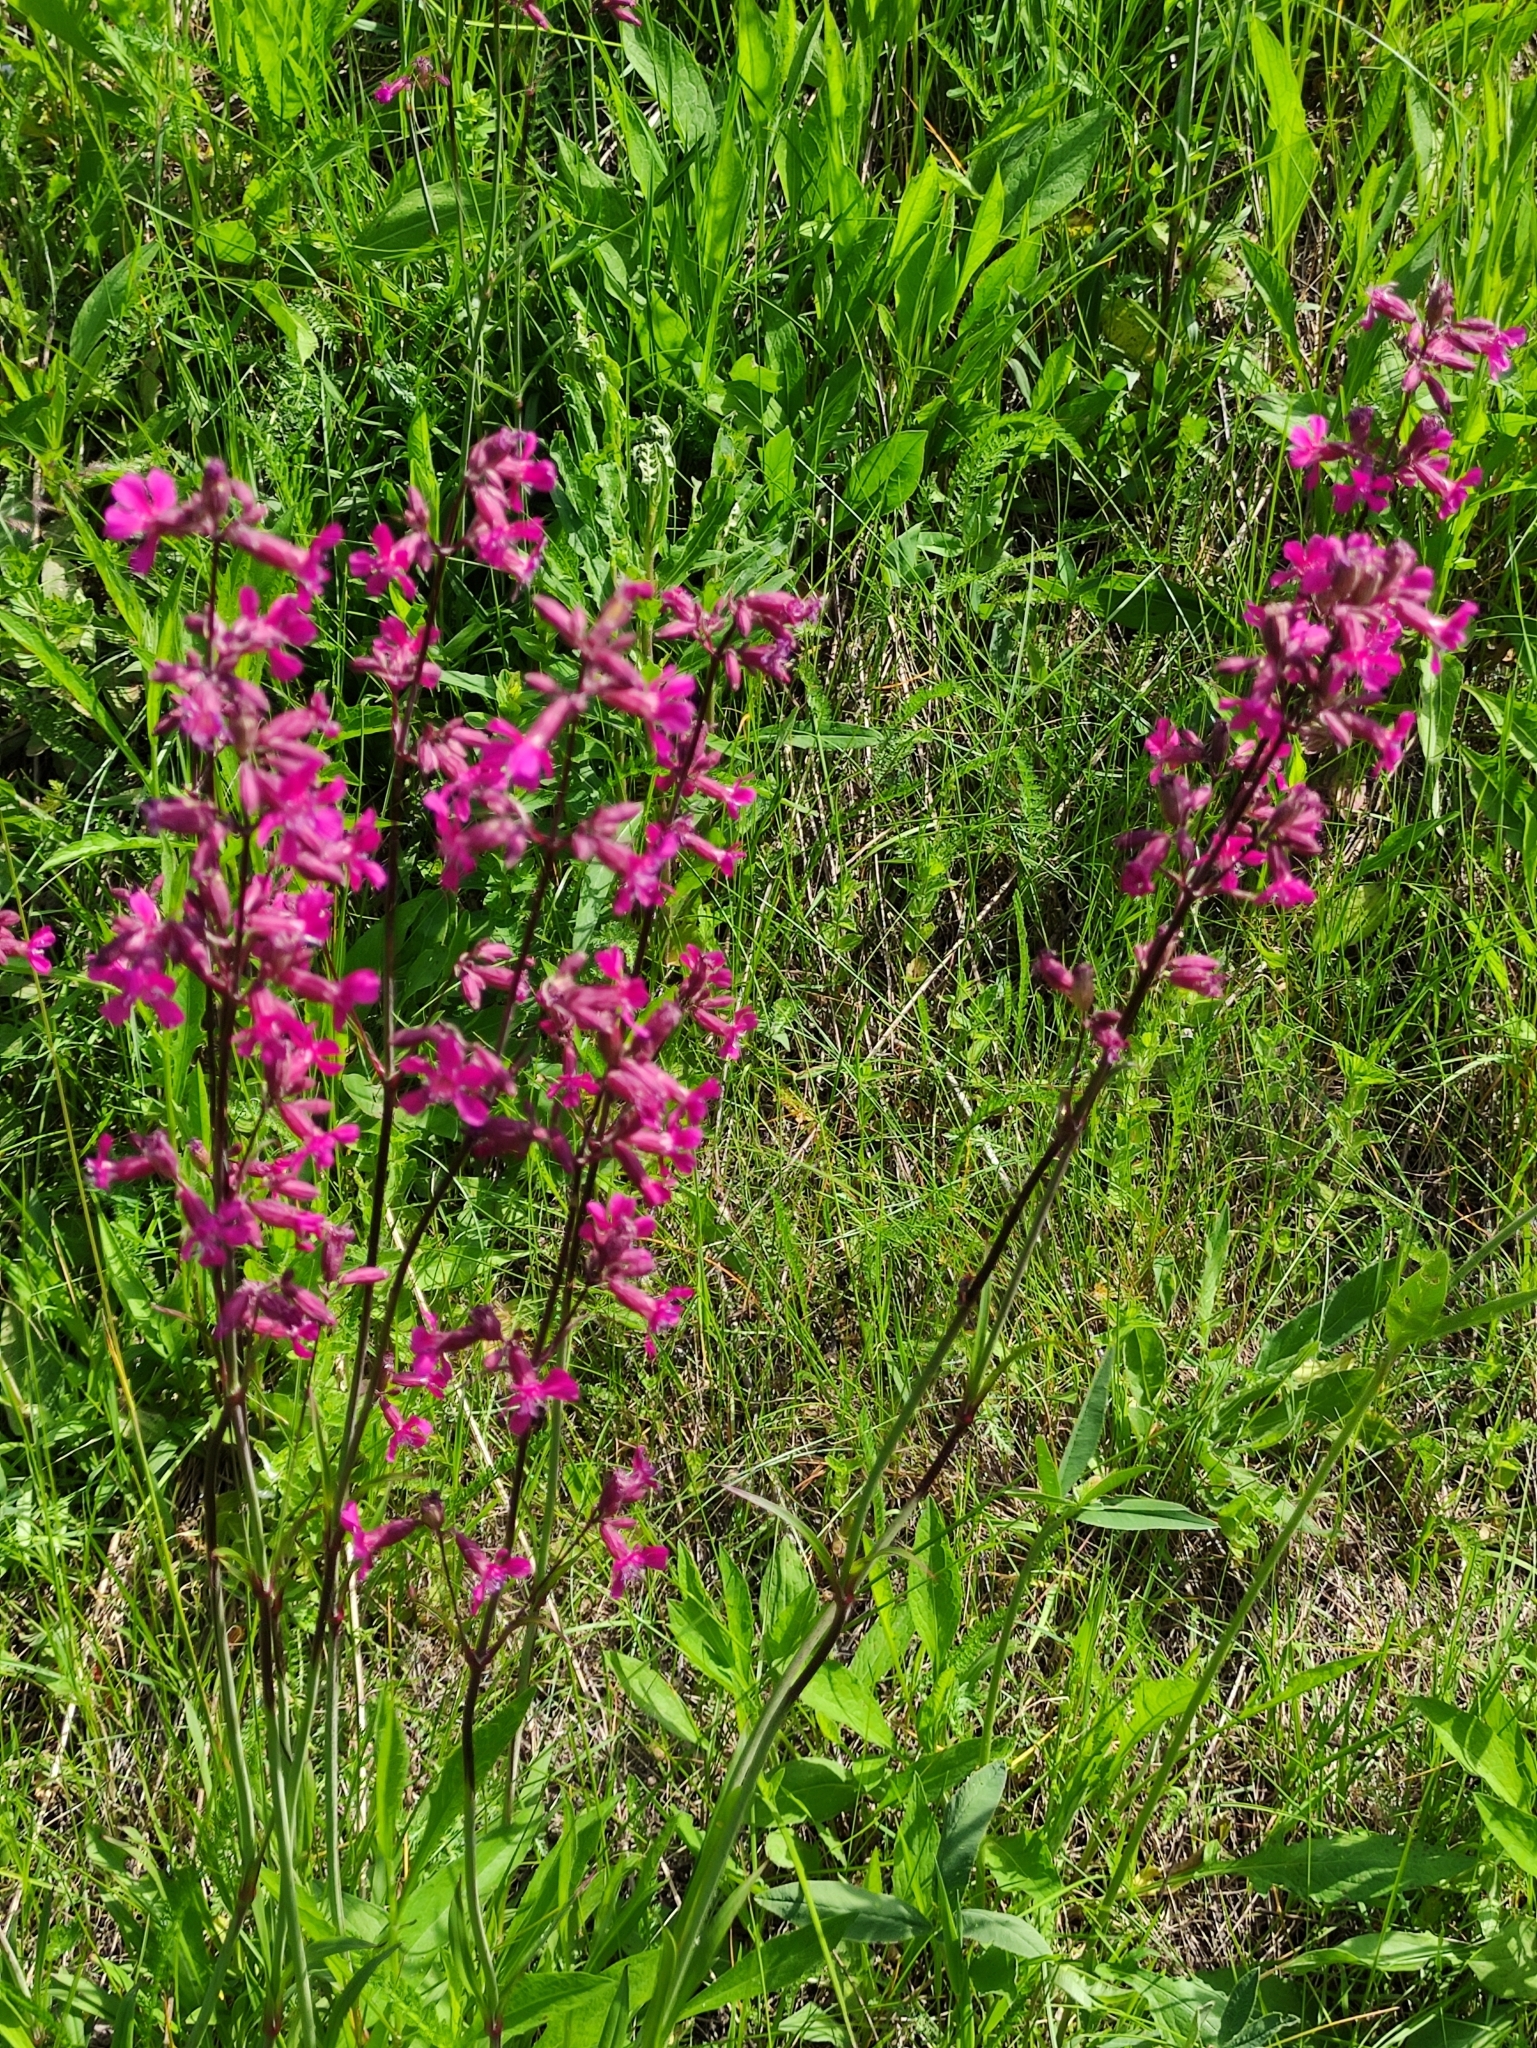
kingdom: Plantae
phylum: Tracheophyta
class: Magnoliopsida
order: Caryophyllales
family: Caryophyllaceae
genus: Viscaria
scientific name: Viscaria vulgaris
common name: Clammy campion
